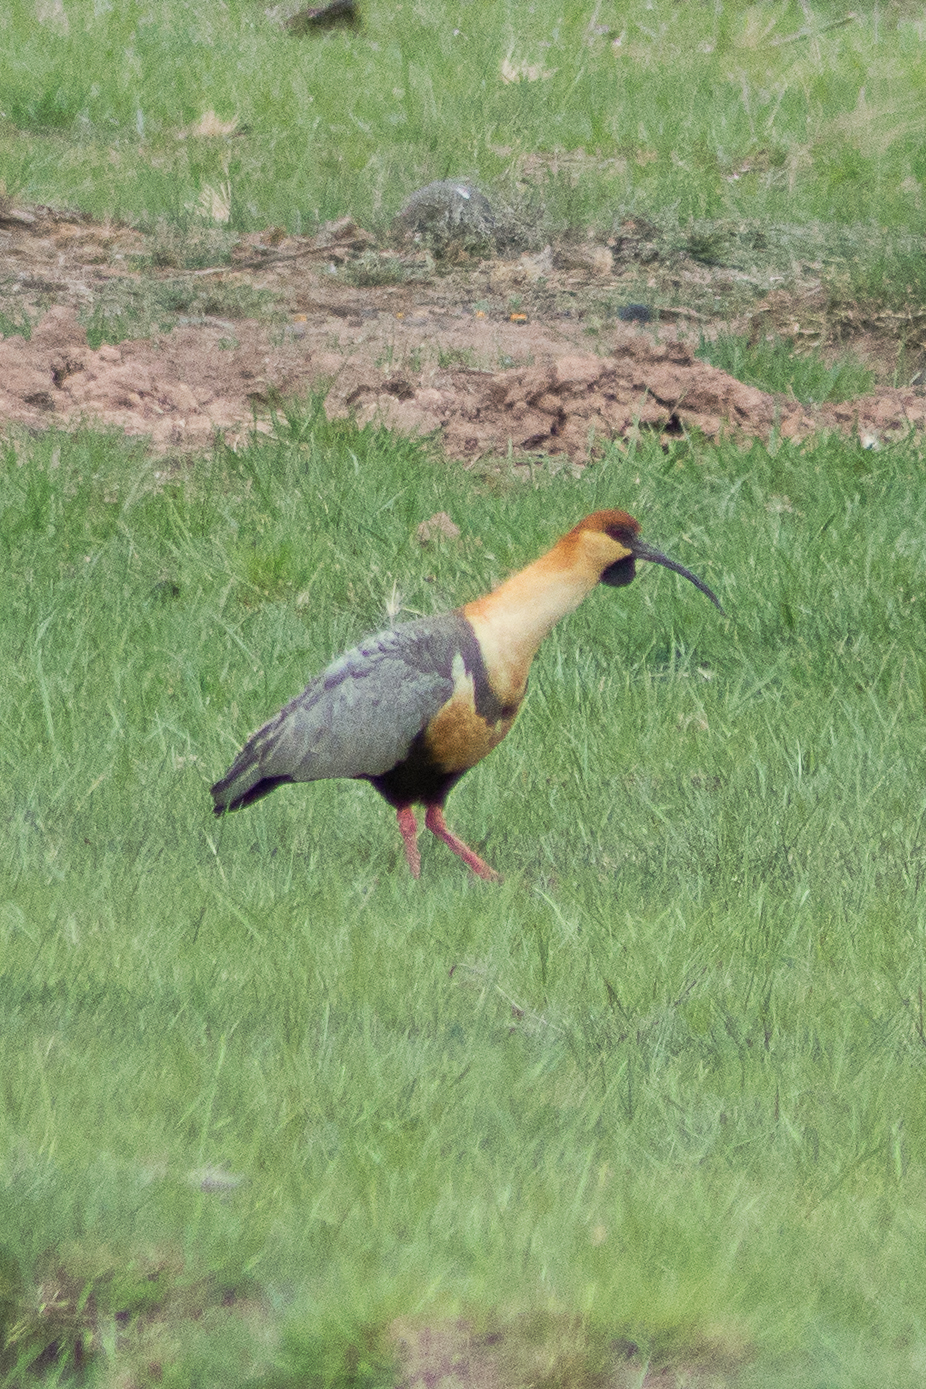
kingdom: Animalia
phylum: Chordata
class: Aves
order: Pelecaniformes
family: Threskiornithidae
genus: Theristicus
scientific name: Theristicus melanopis
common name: Black-faced ibis
